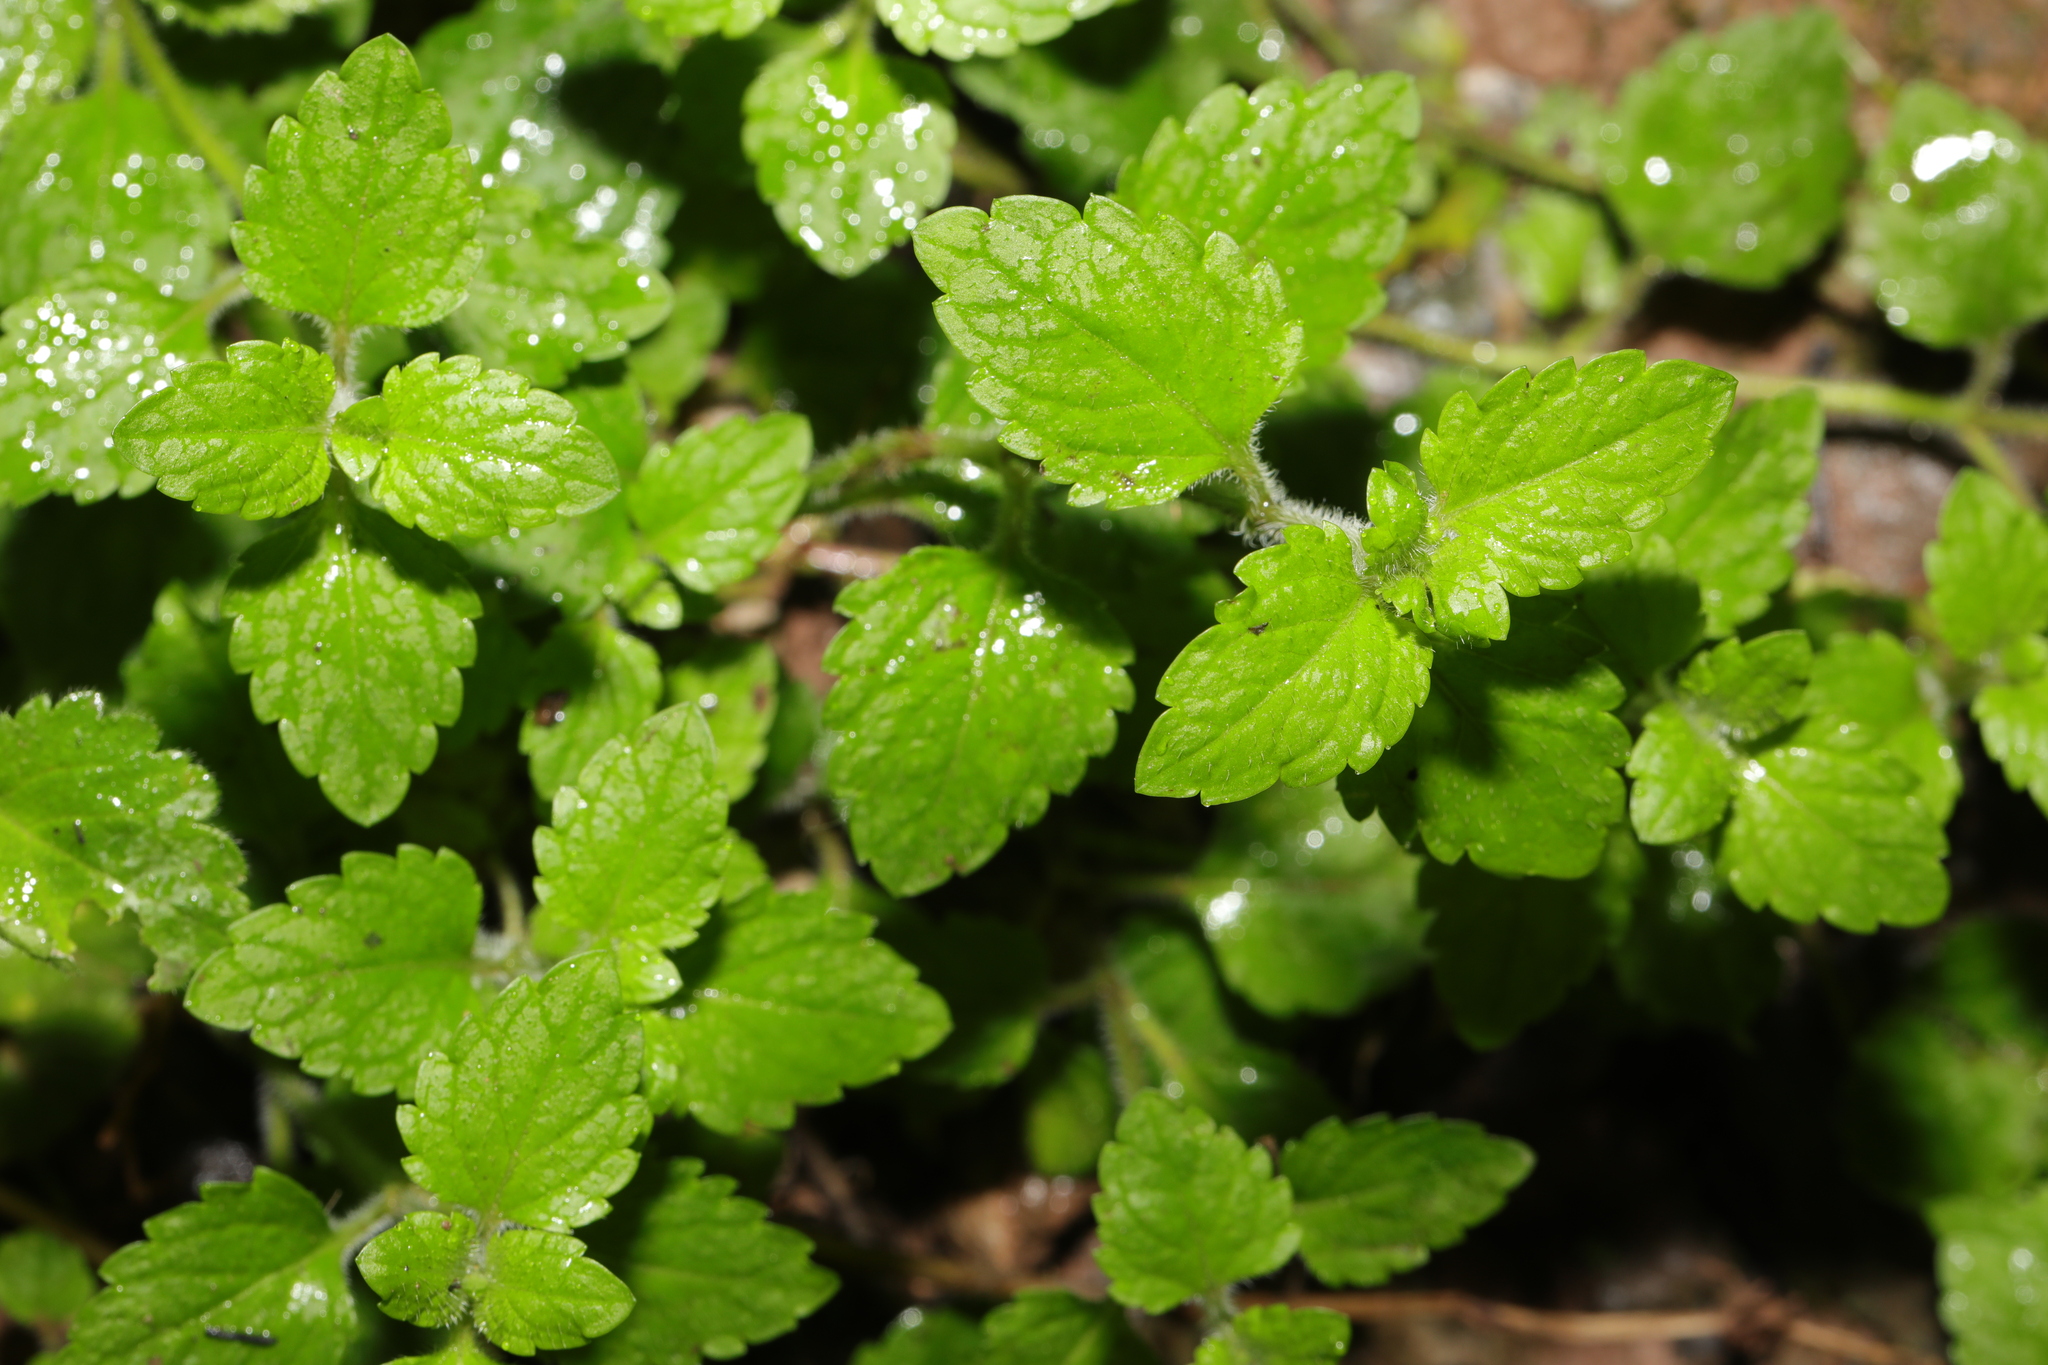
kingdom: Plantae
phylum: Tracheophyta
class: Magnoliopsida
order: Lamiales
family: Plantaginaceae
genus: Veronica
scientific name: Veronica montana
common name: Wood speedwell
